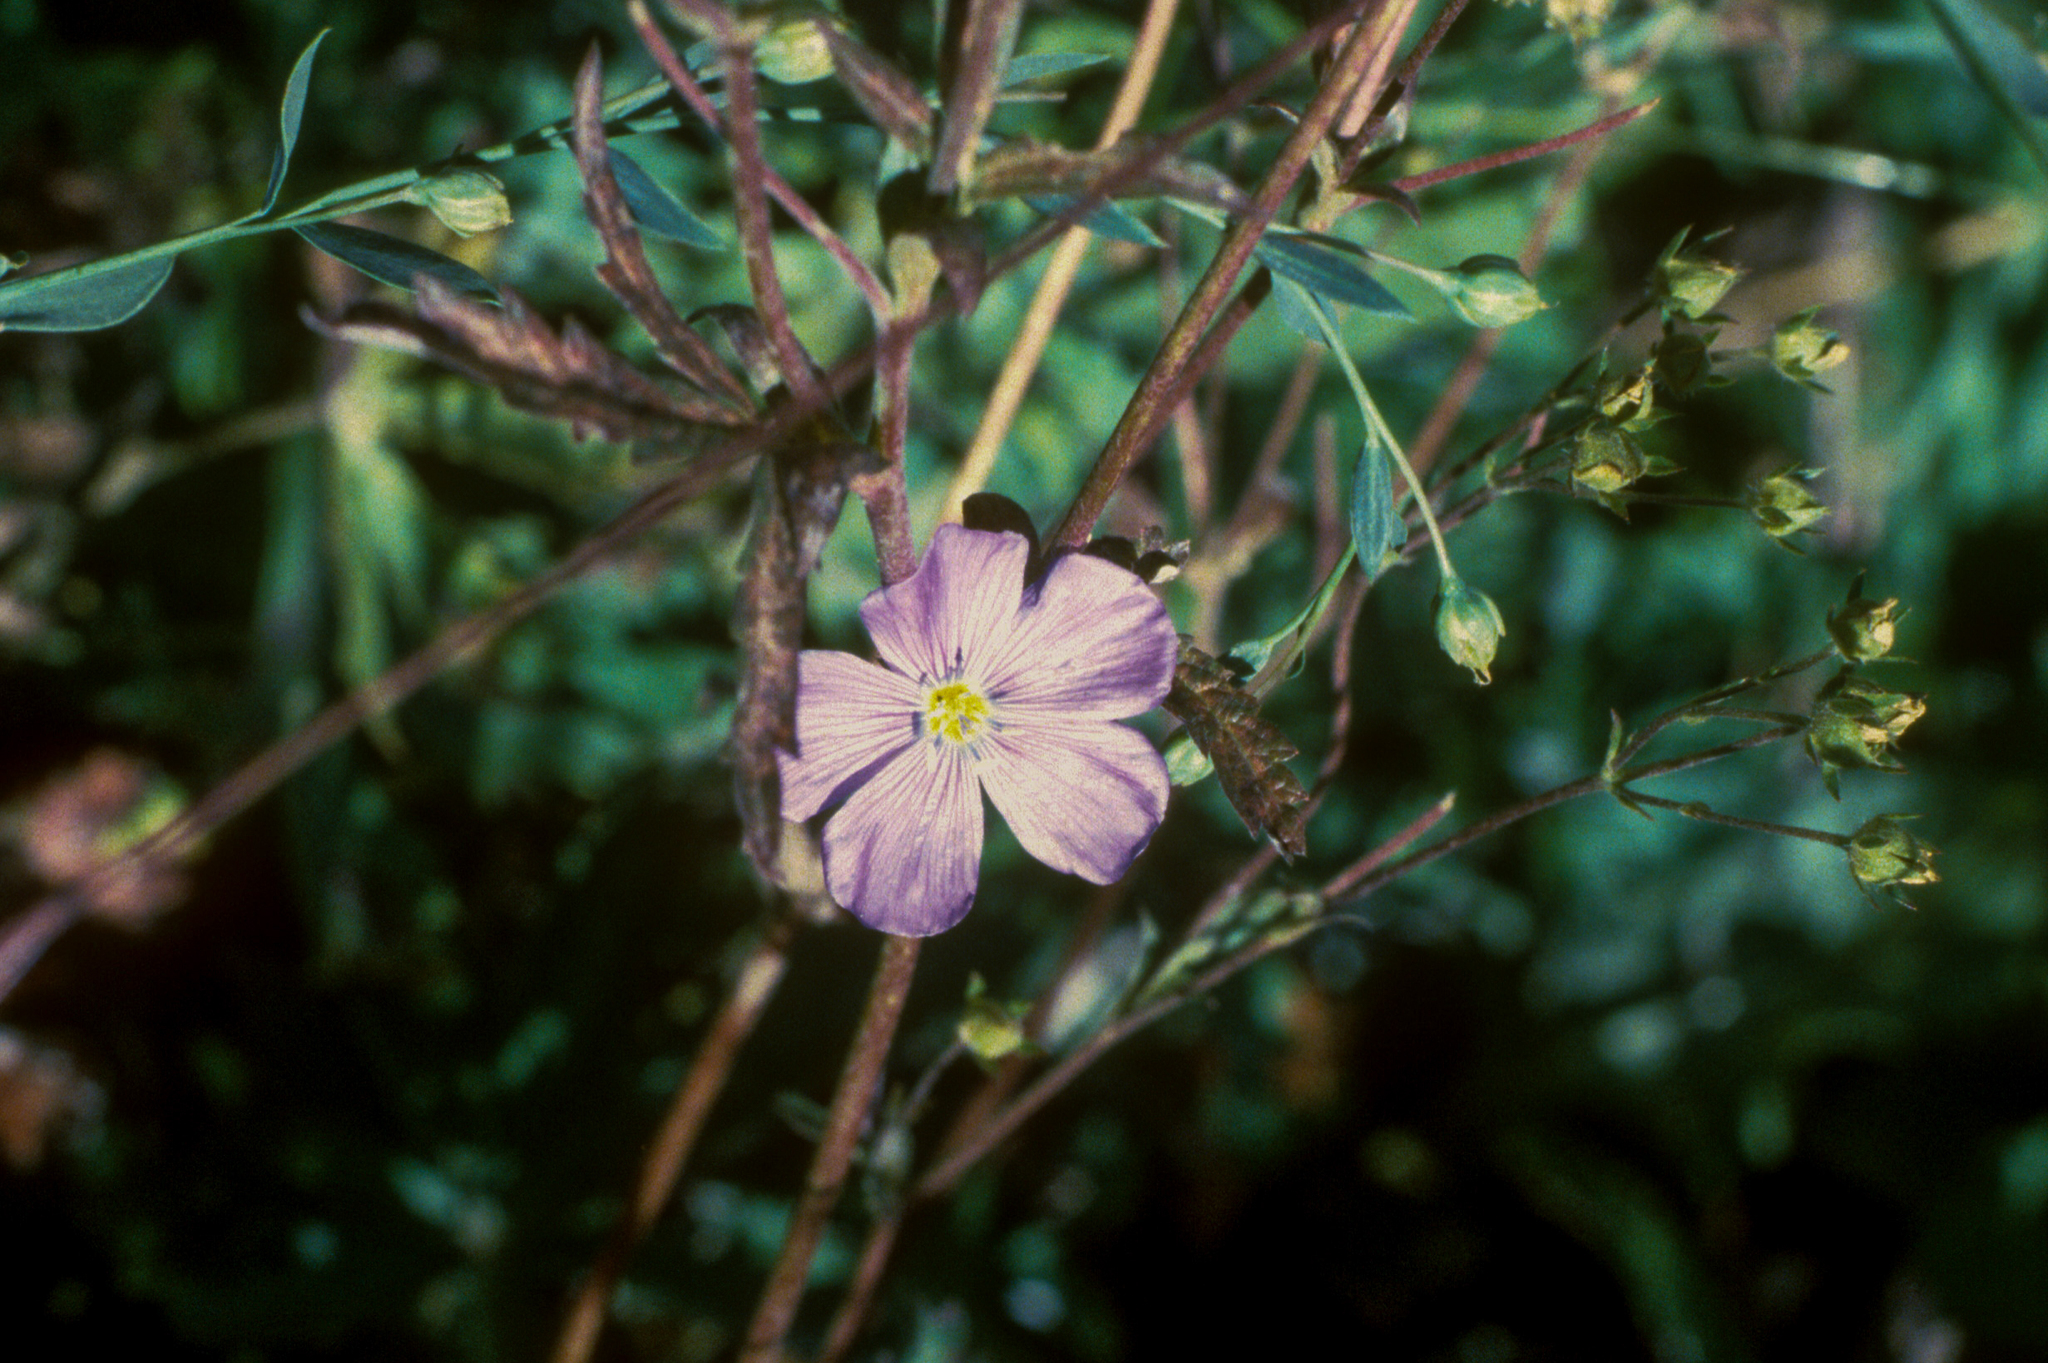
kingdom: Plantae
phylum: Tracheophyta
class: Magnoliopsida
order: Malpighiales
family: Linaceae
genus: Linum
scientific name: Linum lewisii
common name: Prairie flax
